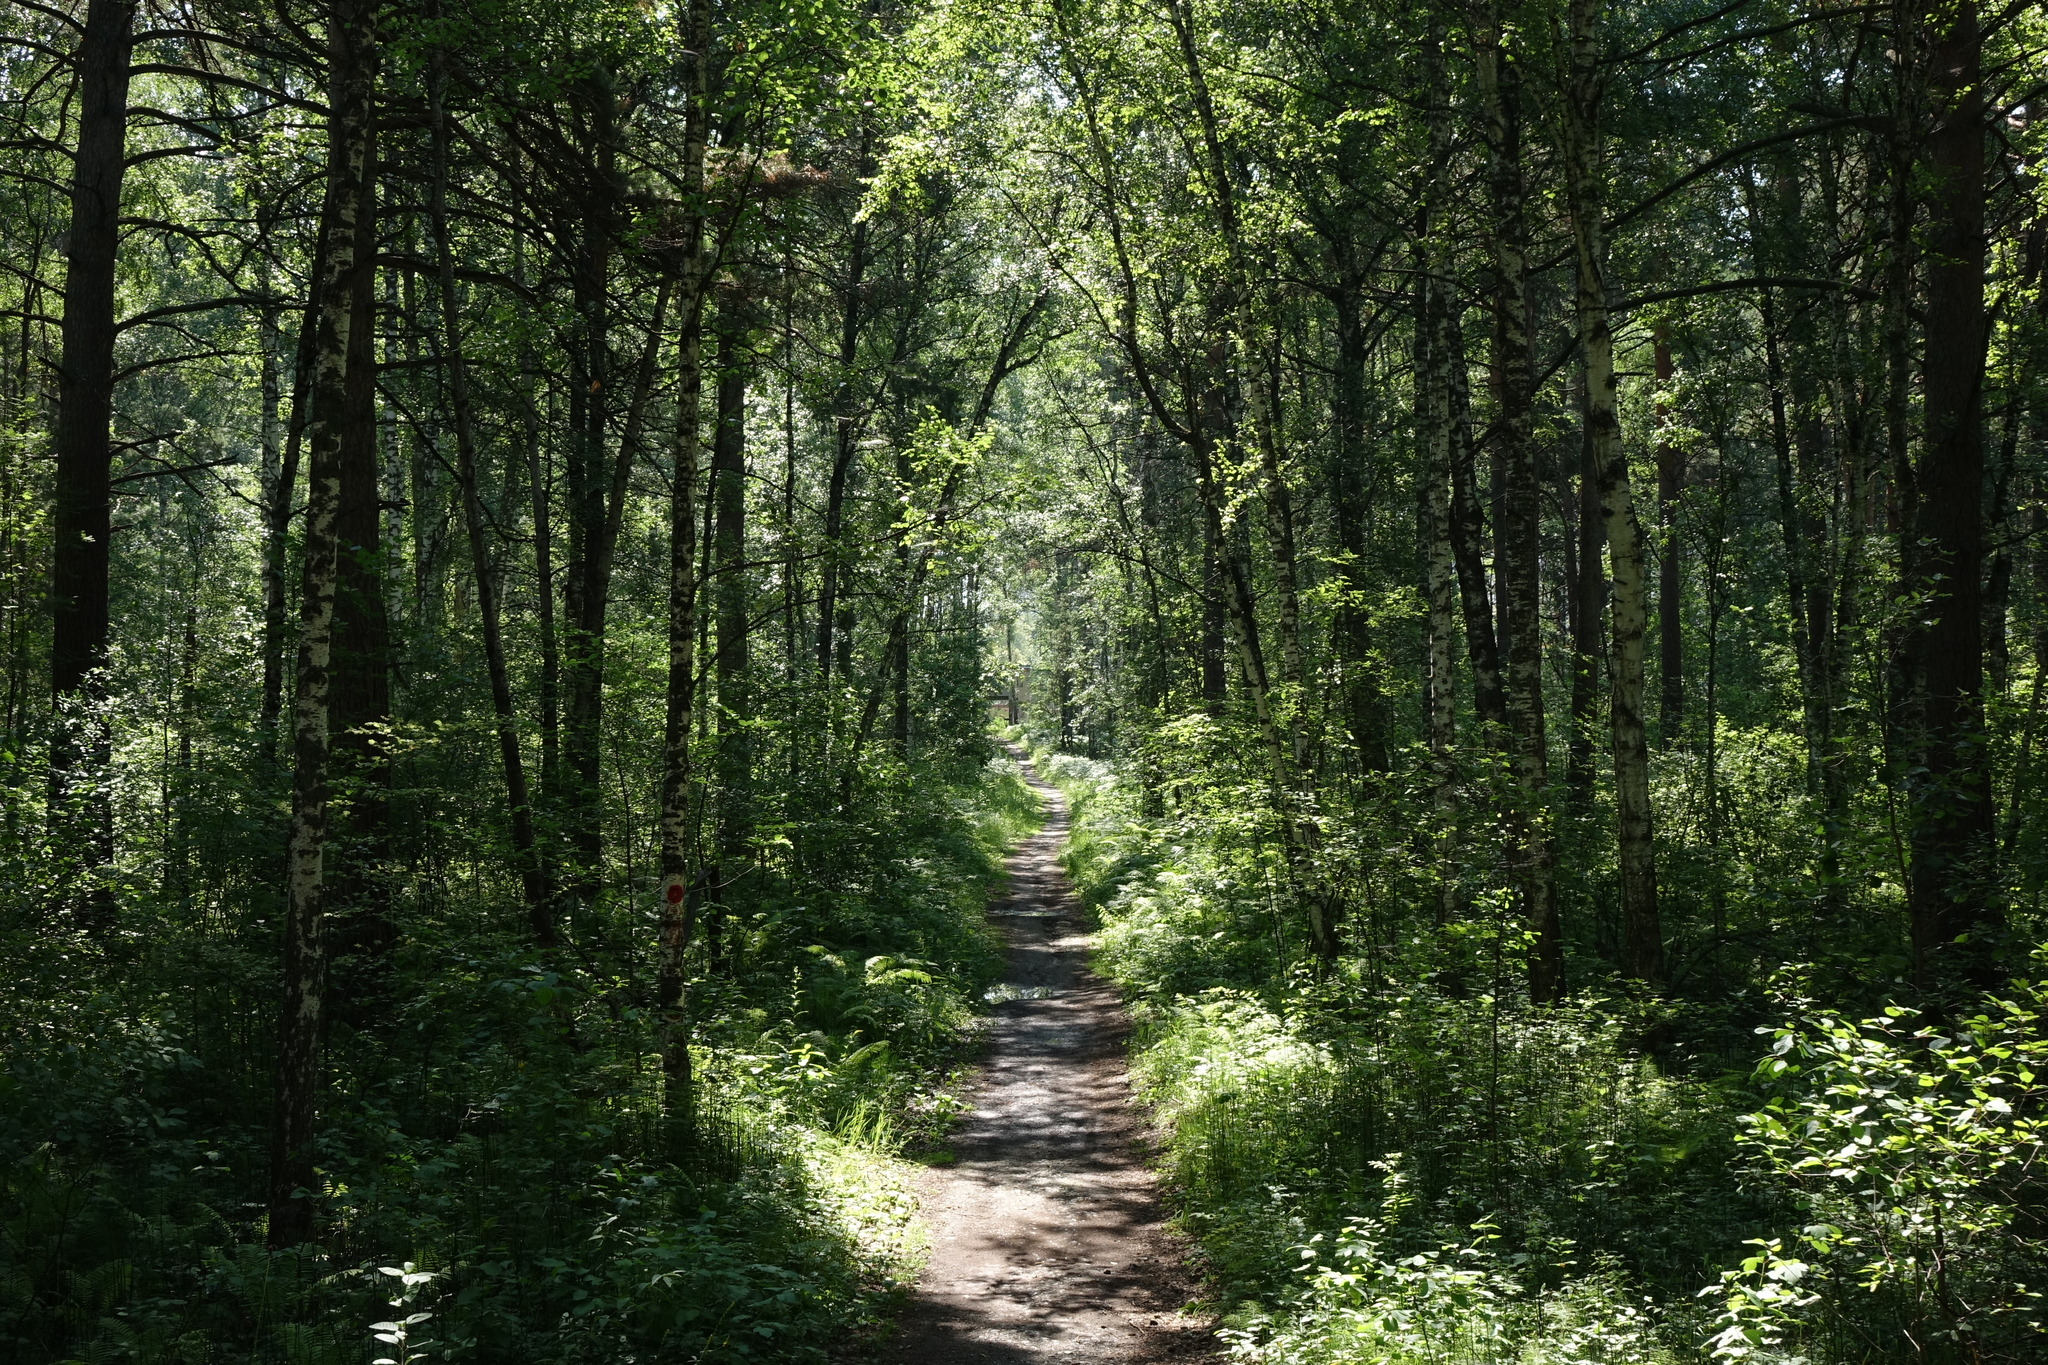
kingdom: Plantae
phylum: Tracheophyta
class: Pinopsida
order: Pinales
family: Pinaceae
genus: Pinus
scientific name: Pinus sylvestris
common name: Scots pine
